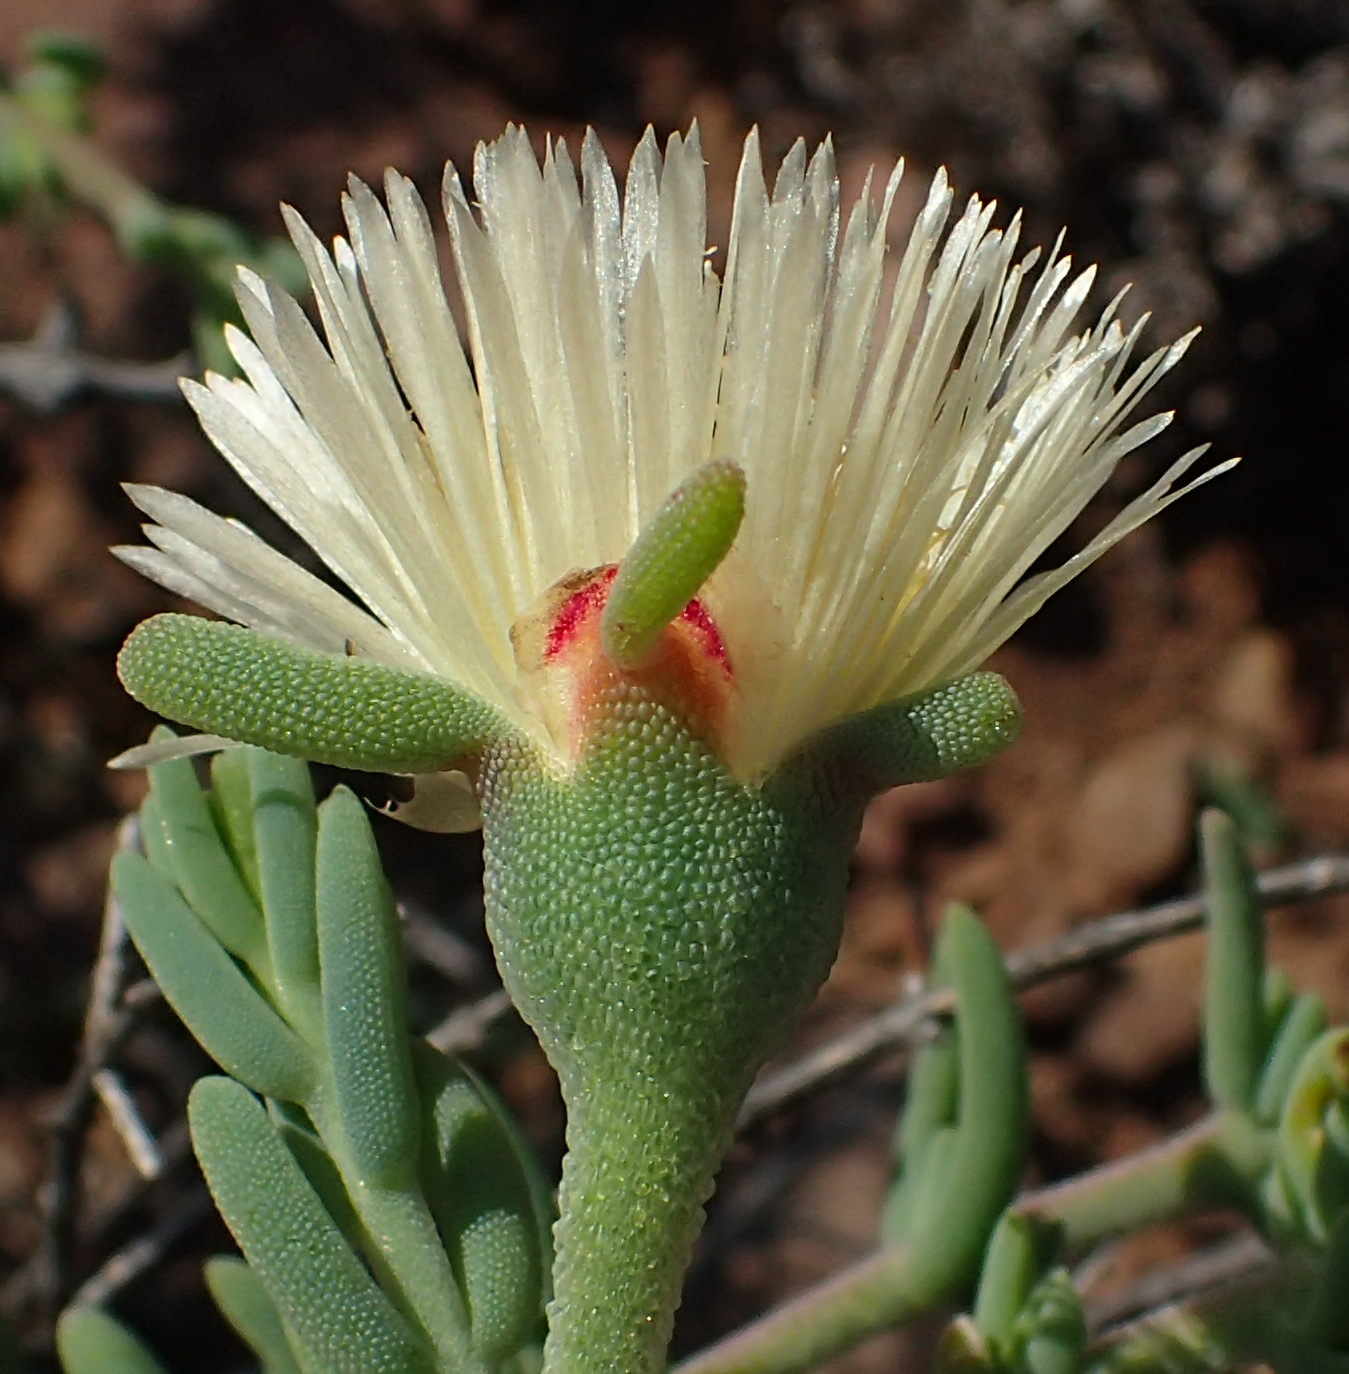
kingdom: Plantae
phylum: Tracheophyta
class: Magnoliopsida
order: Caryophyllales
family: Aizoaceae
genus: Mesembryanthemum
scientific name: Mesembryanthemum splendens
